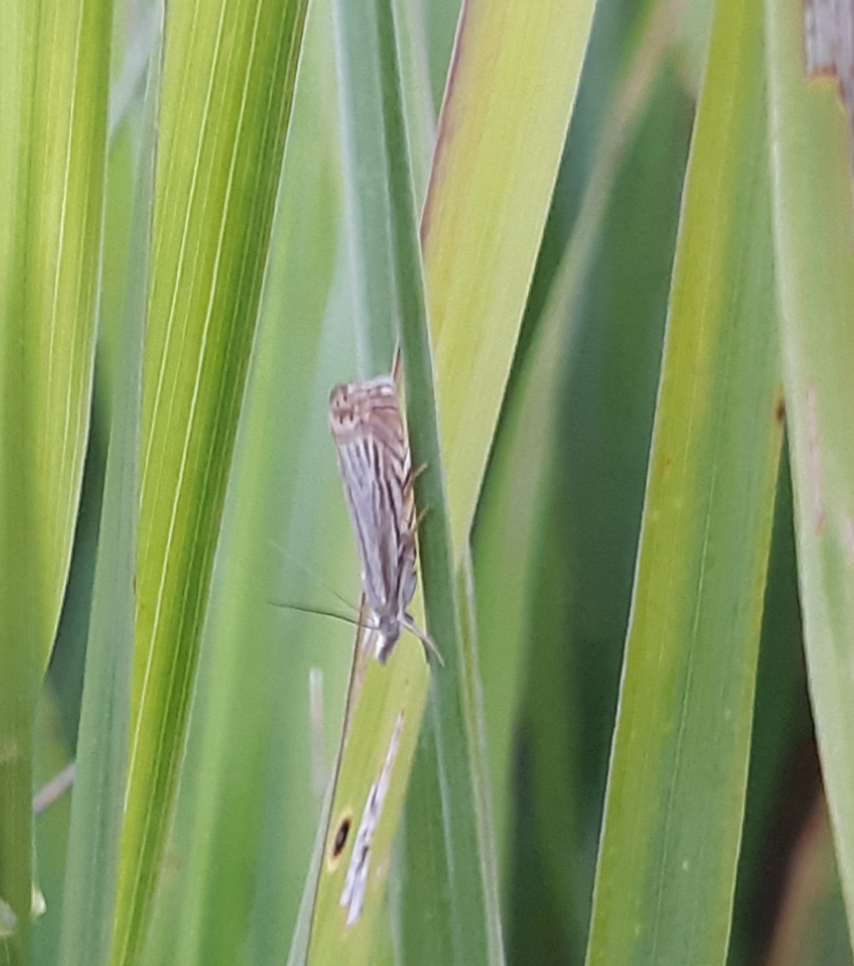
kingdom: Animalia
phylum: Arthropoda
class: Insecta
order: Lepidoptera
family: Crambidae
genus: Chrysoteuchia
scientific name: Chrysoteuchia topiarius
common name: Topiary grass-veneer
